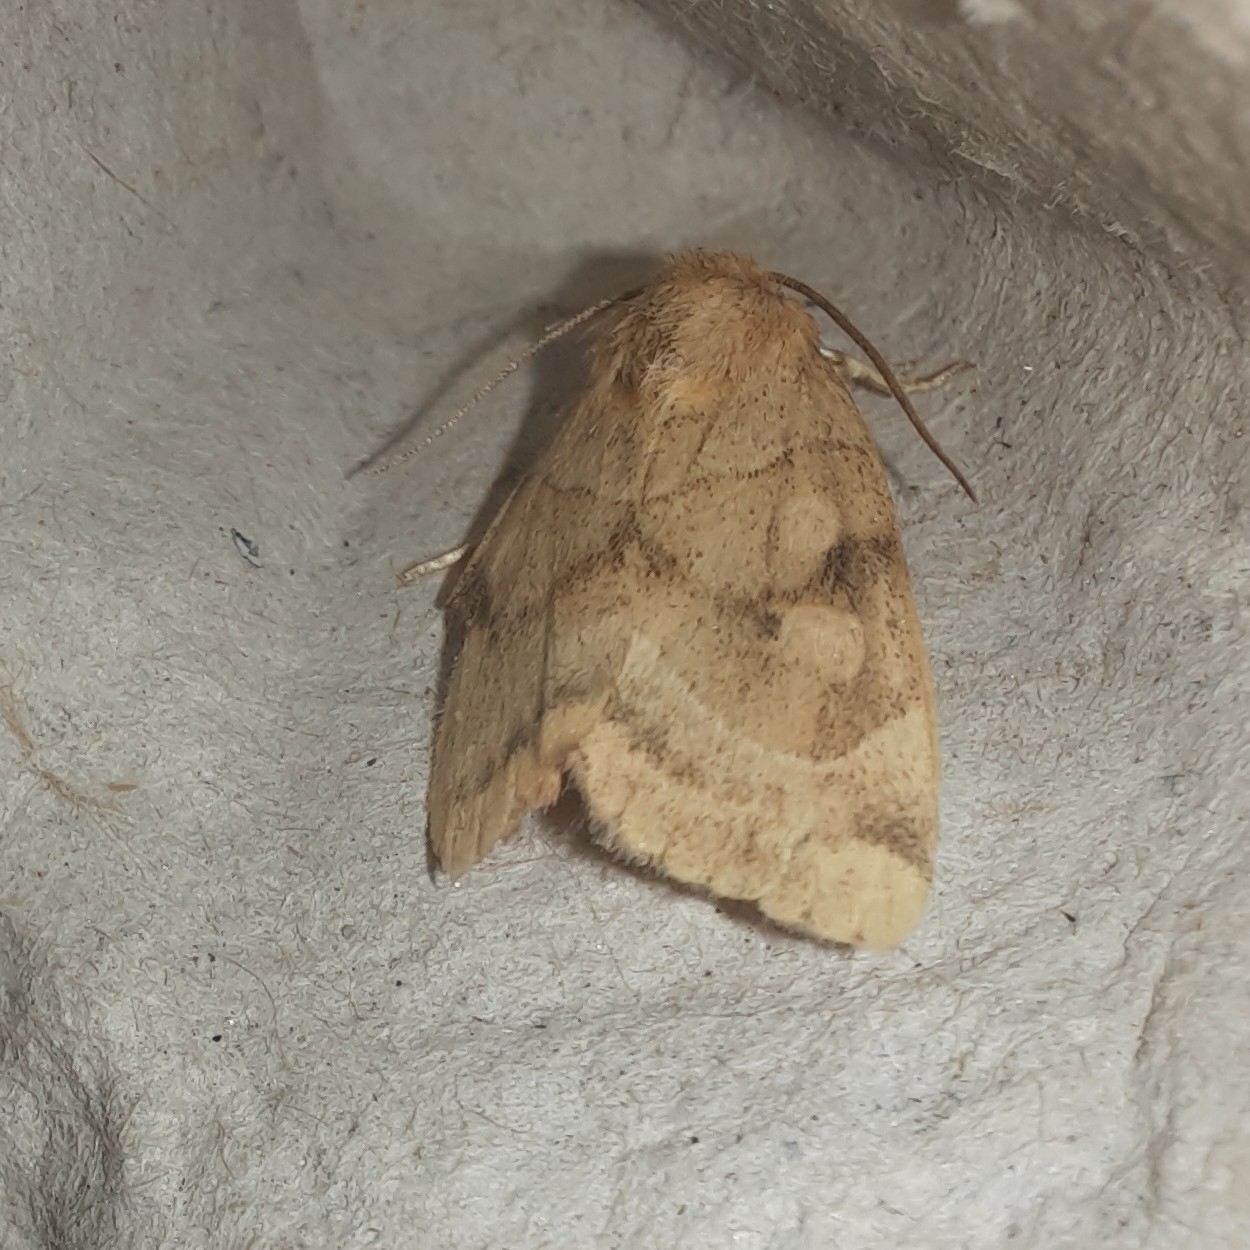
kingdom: Animalia
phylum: Arthropoda
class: Insecta
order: Lepidoptera
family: Noctuidae
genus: Cosmia
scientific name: Cosmia trapezina
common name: Dun-bar
